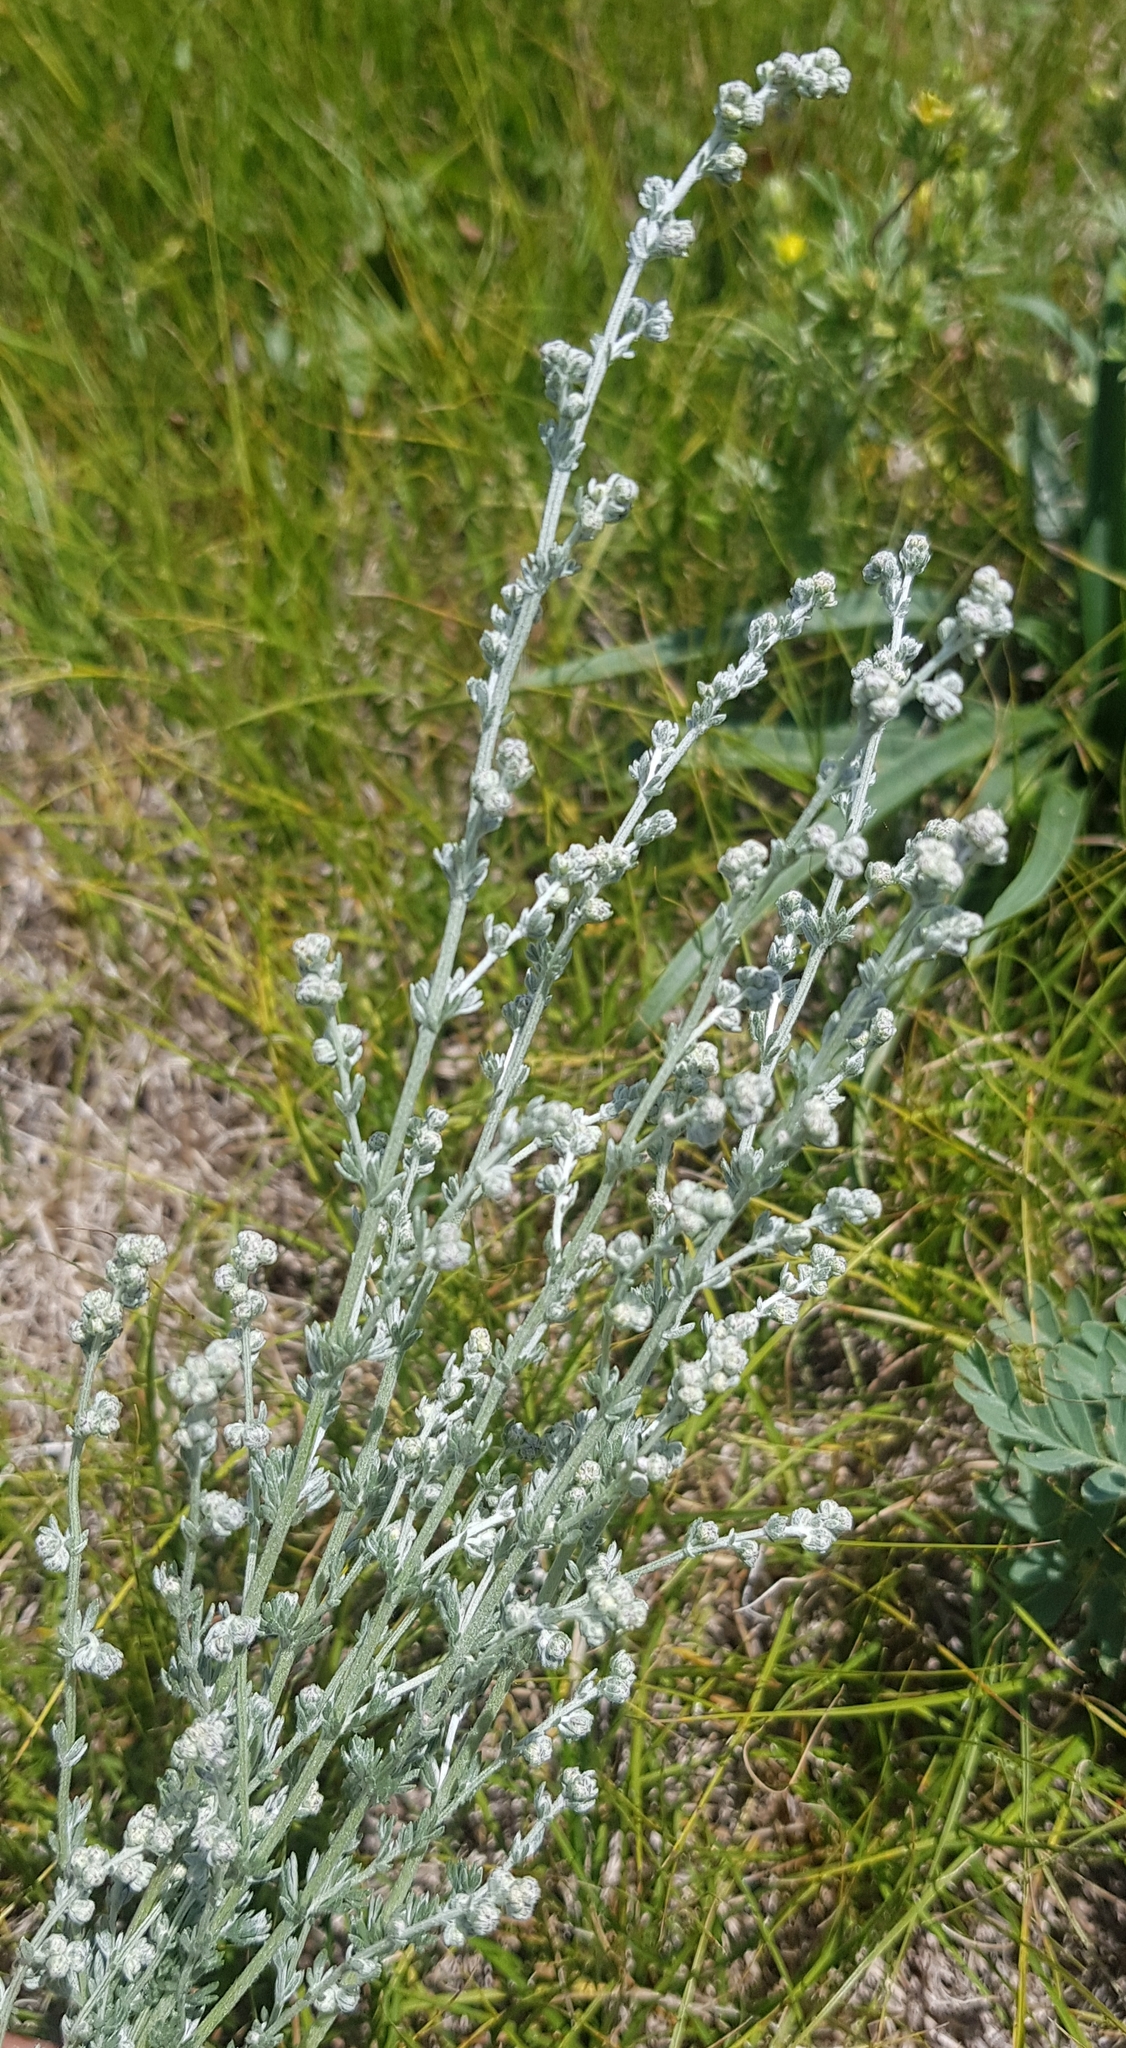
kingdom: Plantae
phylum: Tracheophyta
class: Magnoliopsida
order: Asterales
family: Asteraceae
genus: Artemisia
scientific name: Artemisia frigida
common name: Prairie sagewort
